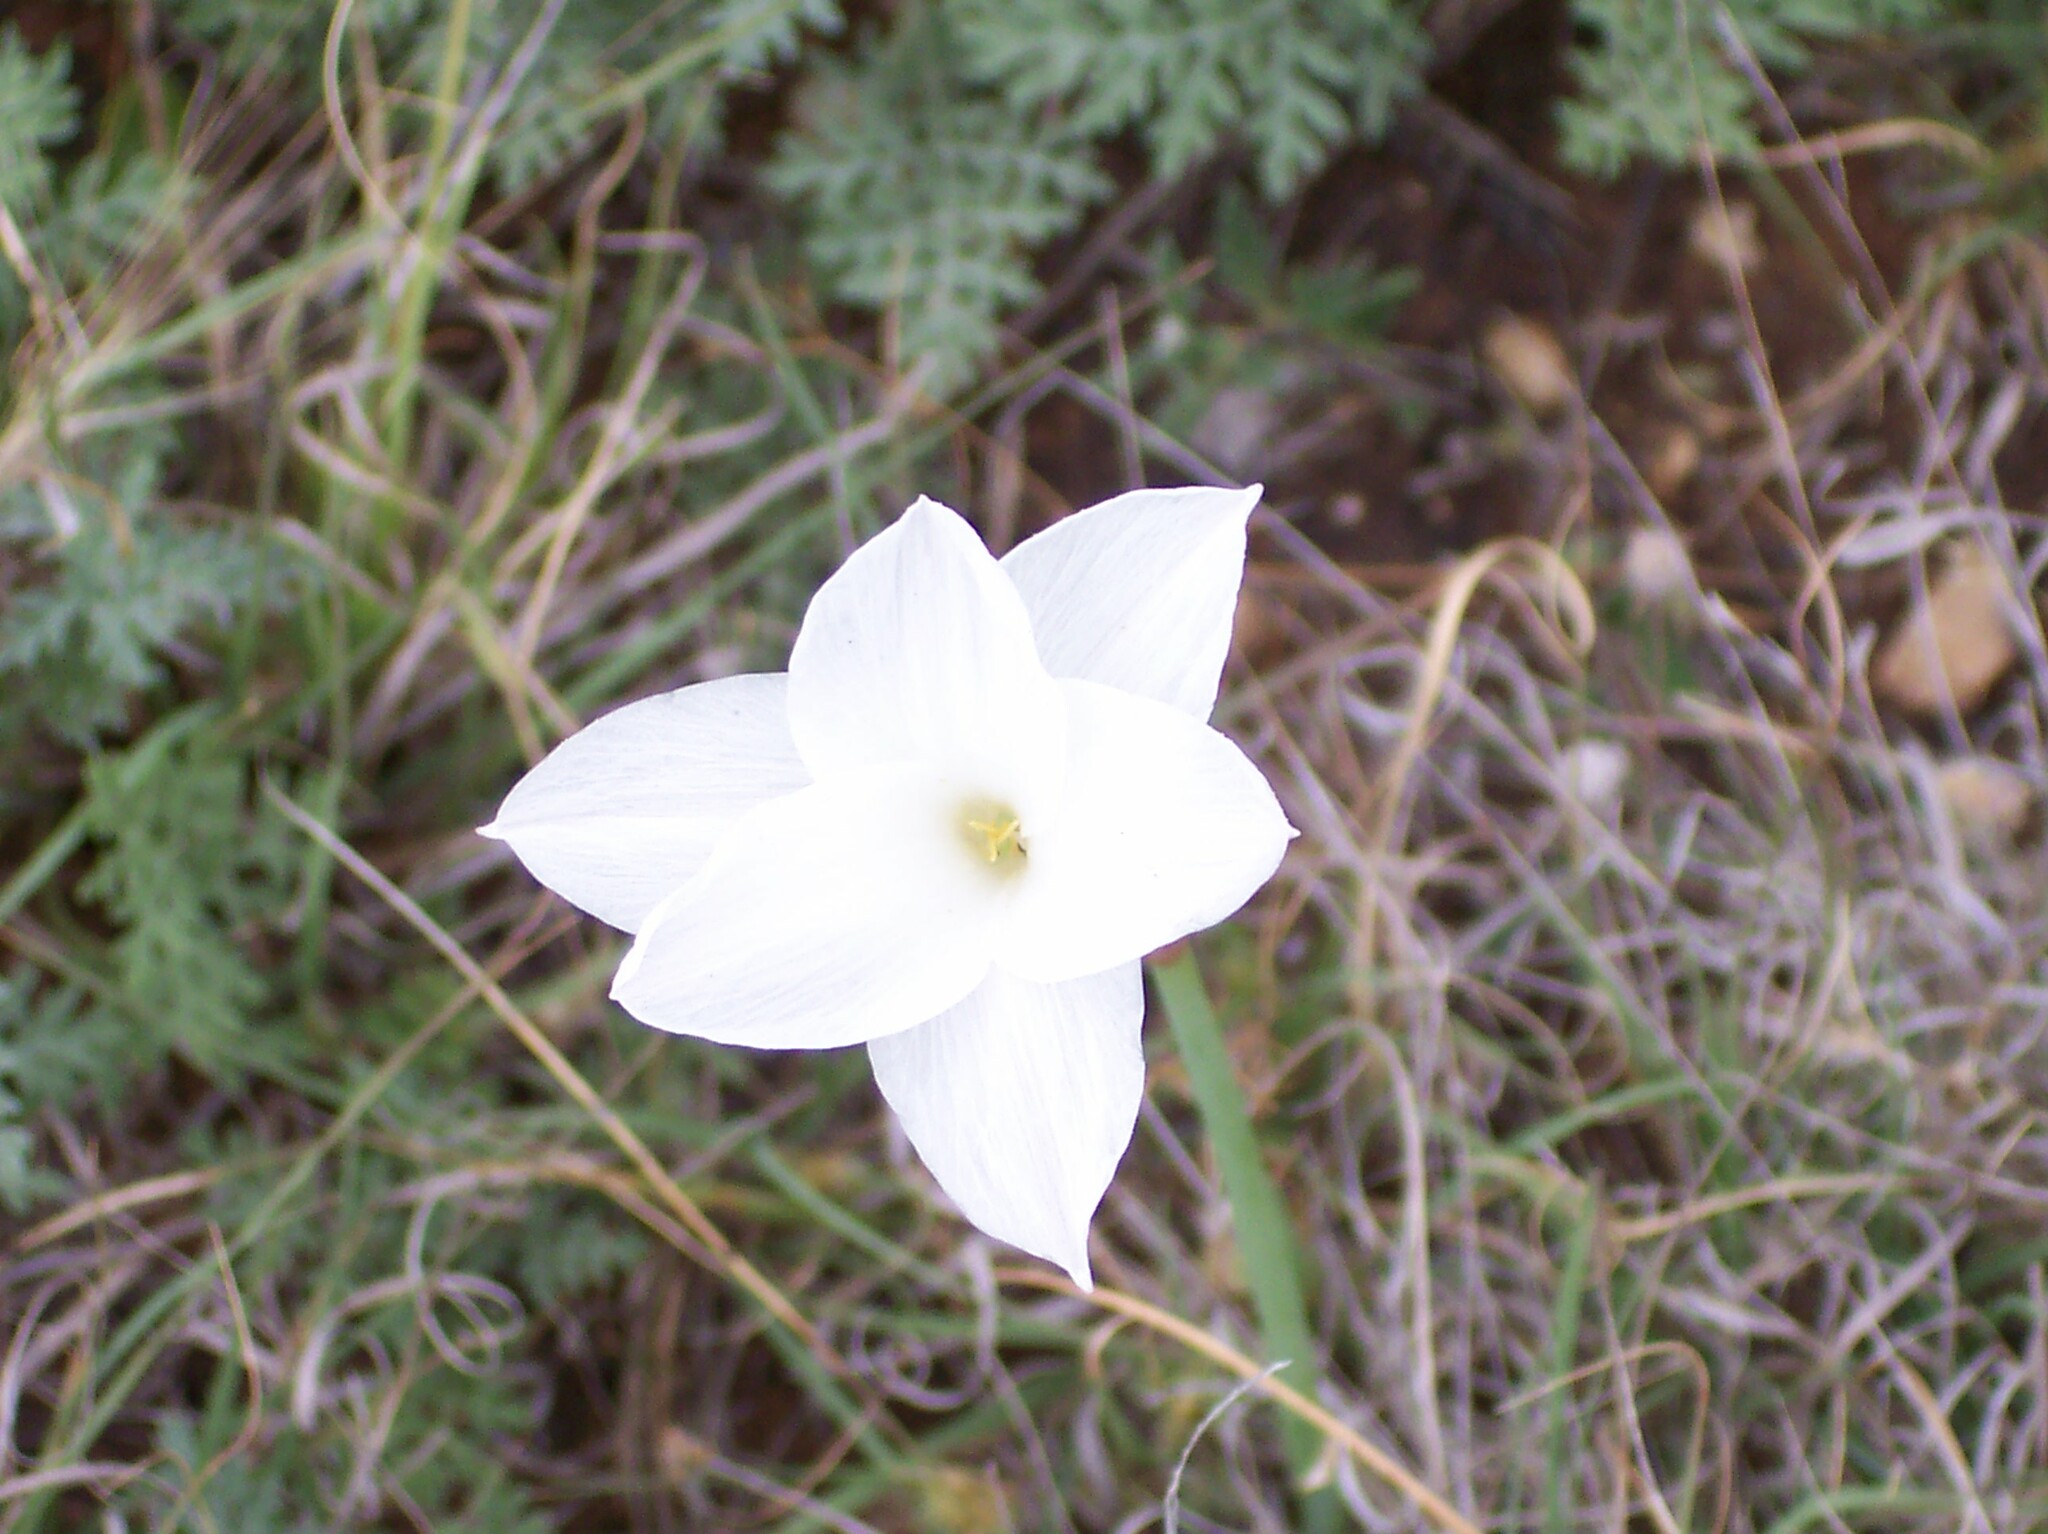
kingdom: Plantae
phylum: Tracheophyta
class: Liliopsida
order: Asparagales
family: Amaryllidaceae
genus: Zephyranthes
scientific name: Zephyranthes drummondii
